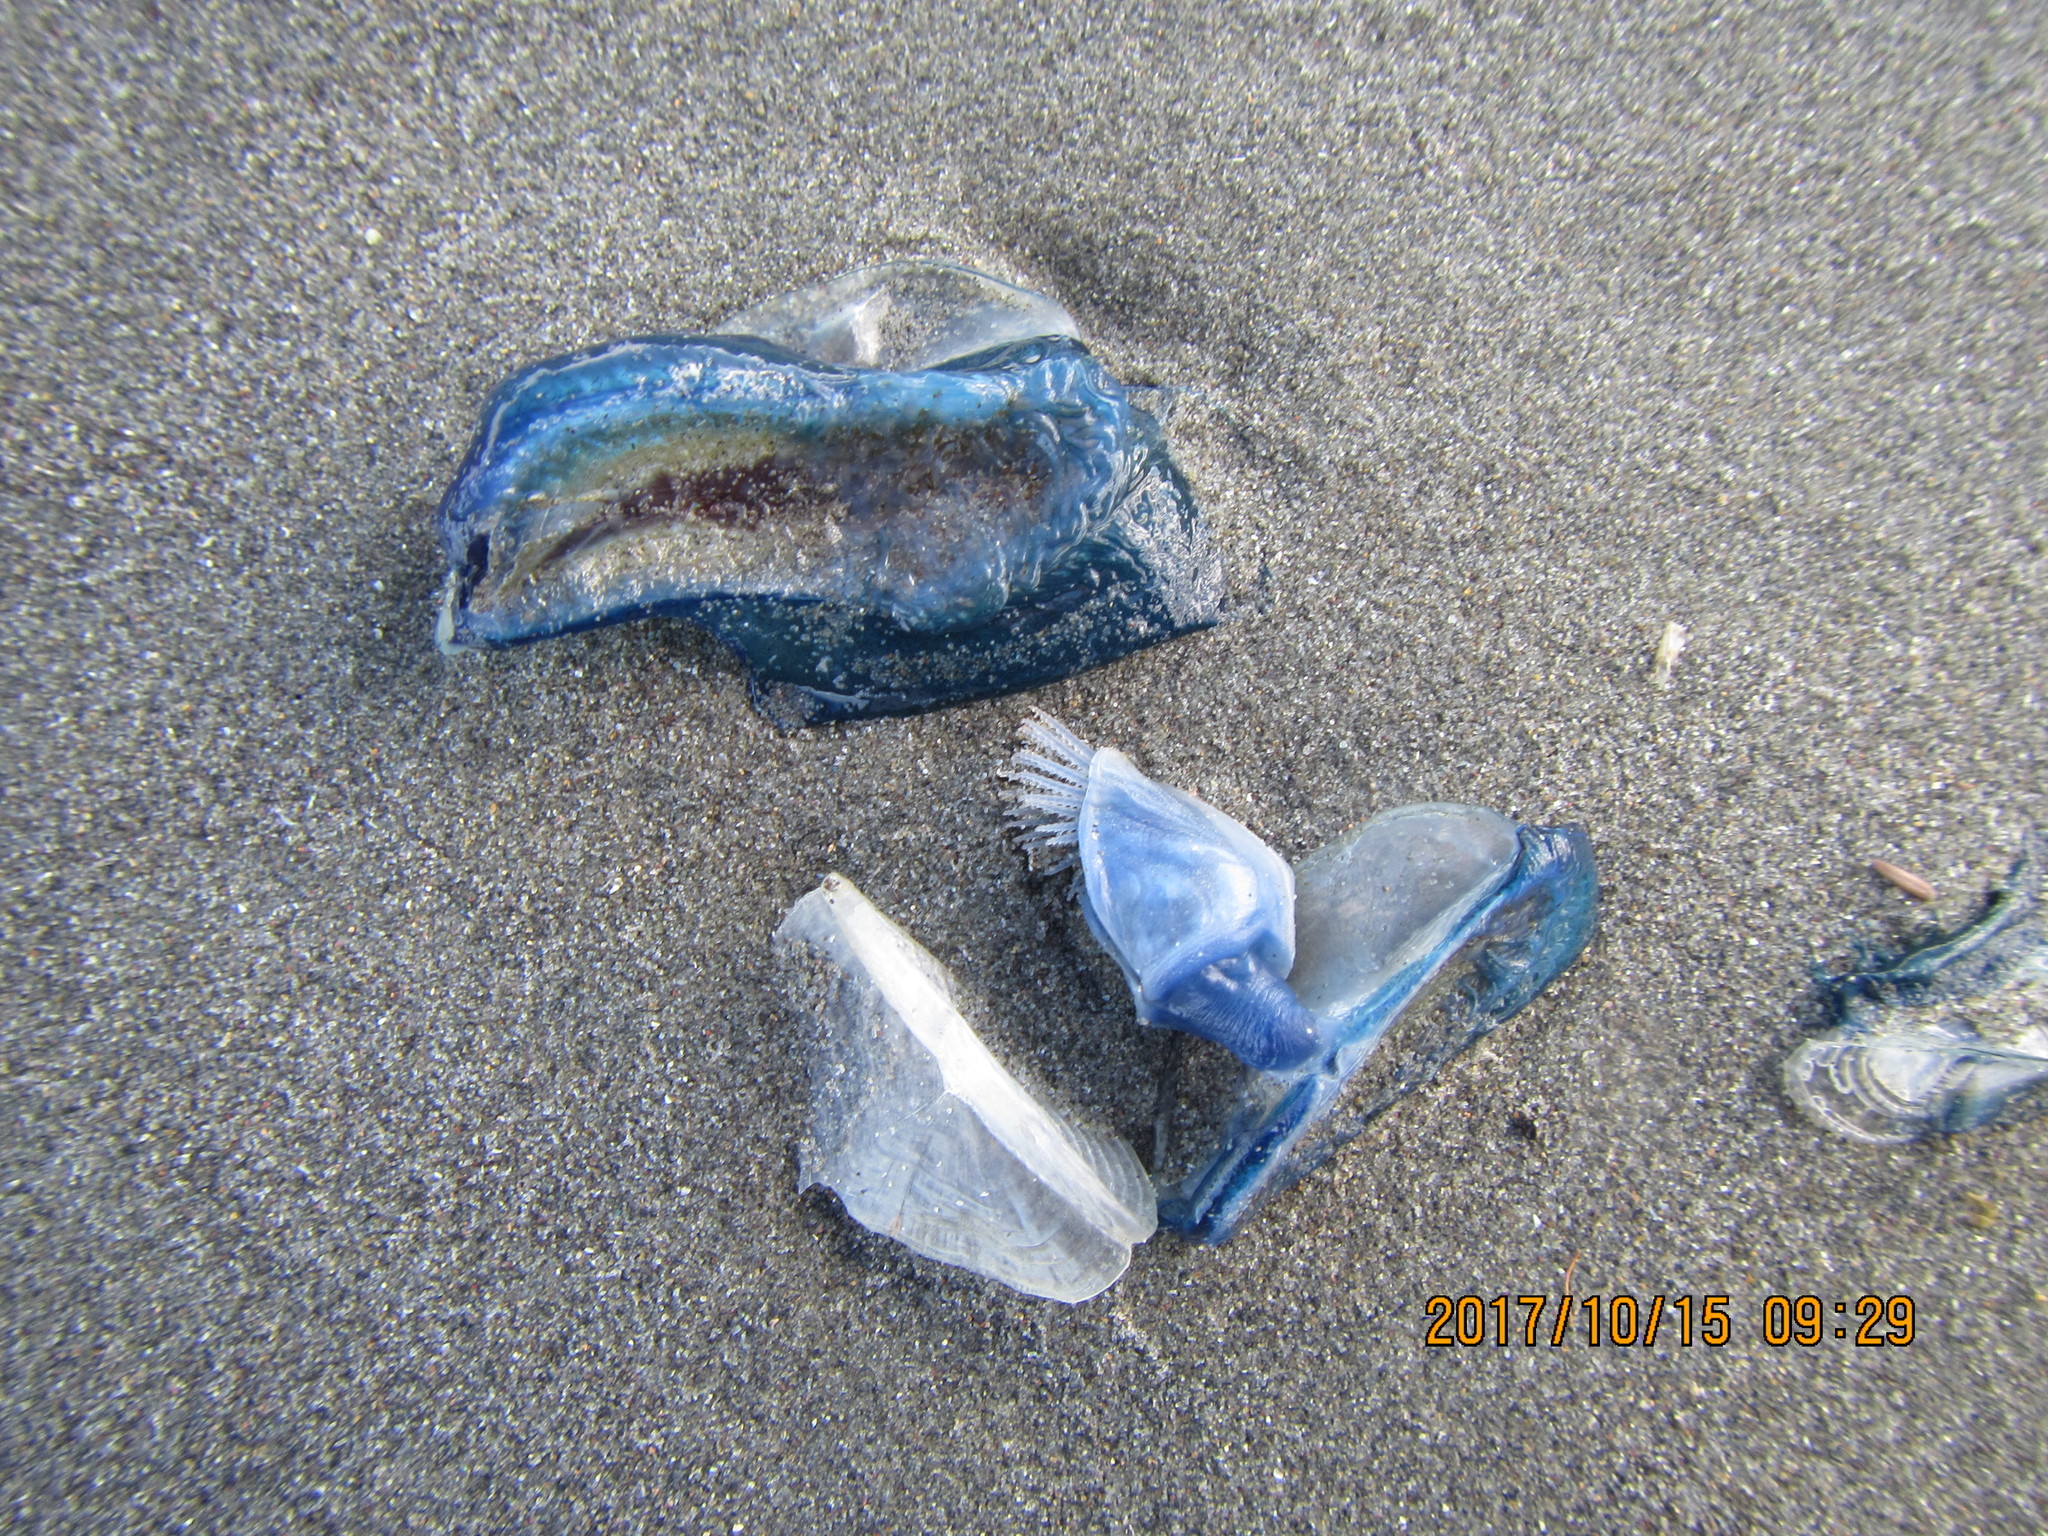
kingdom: Animalia
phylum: Cnidaria
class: Hydrozoa
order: Anthoathecata
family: Porpitidae
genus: Velella
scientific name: Velella velella
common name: By-the-wind-sailor
